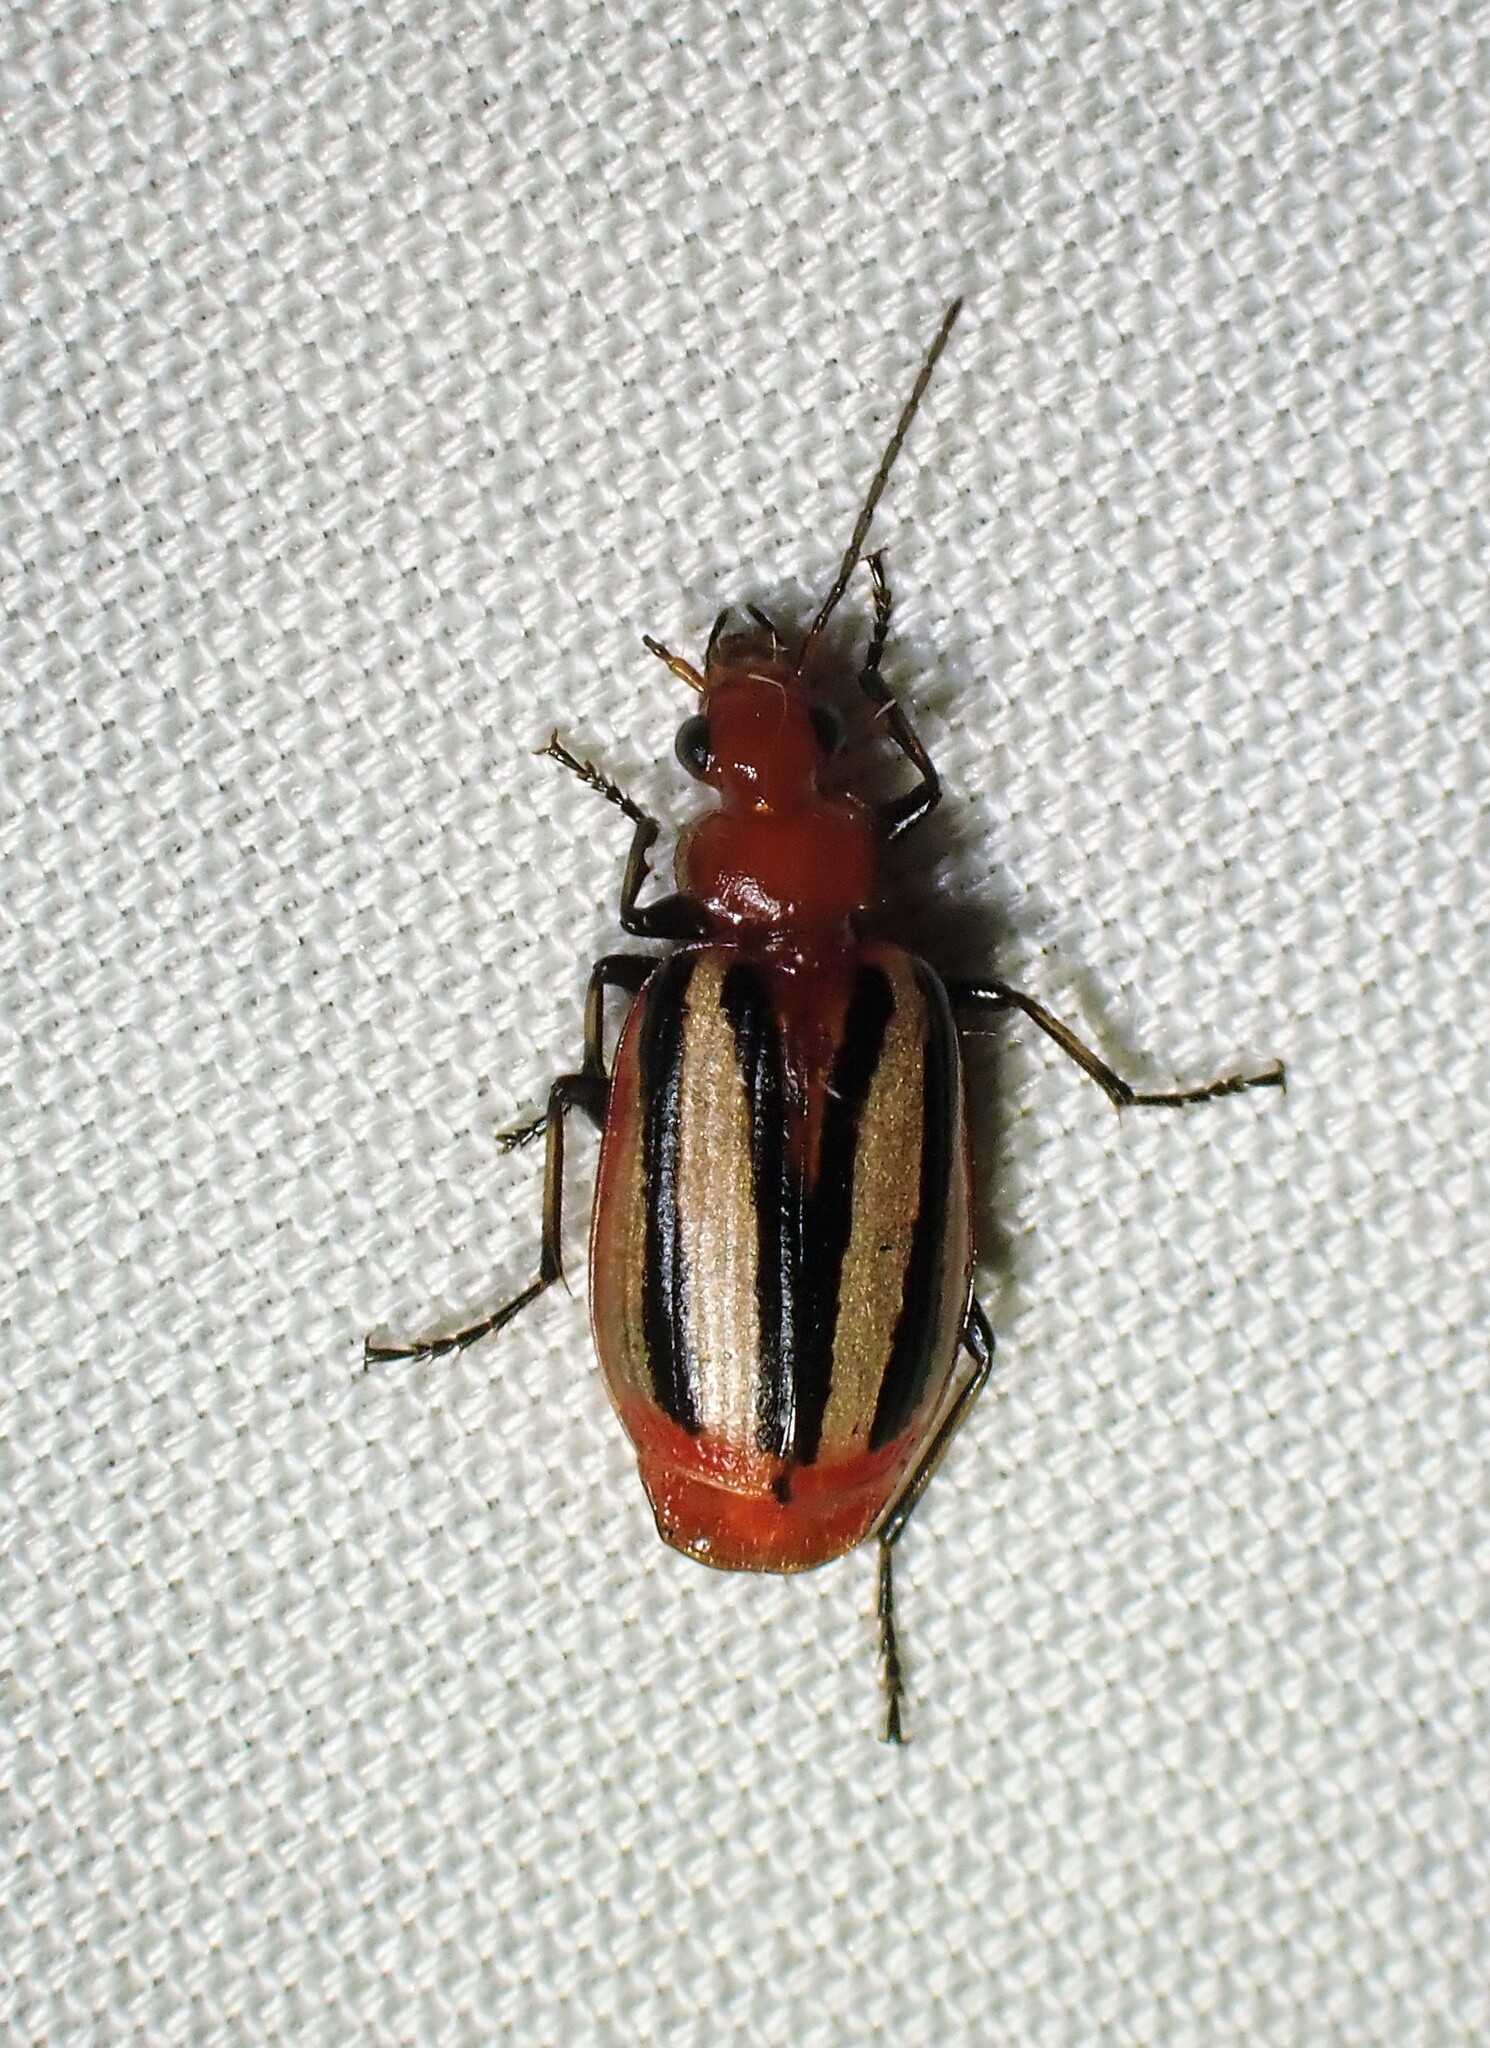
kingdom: Animalia
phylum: Arthropoda
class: Insecta
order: Coleoptera
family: Carabidae
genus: Lebia
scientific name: Lebia vittata
